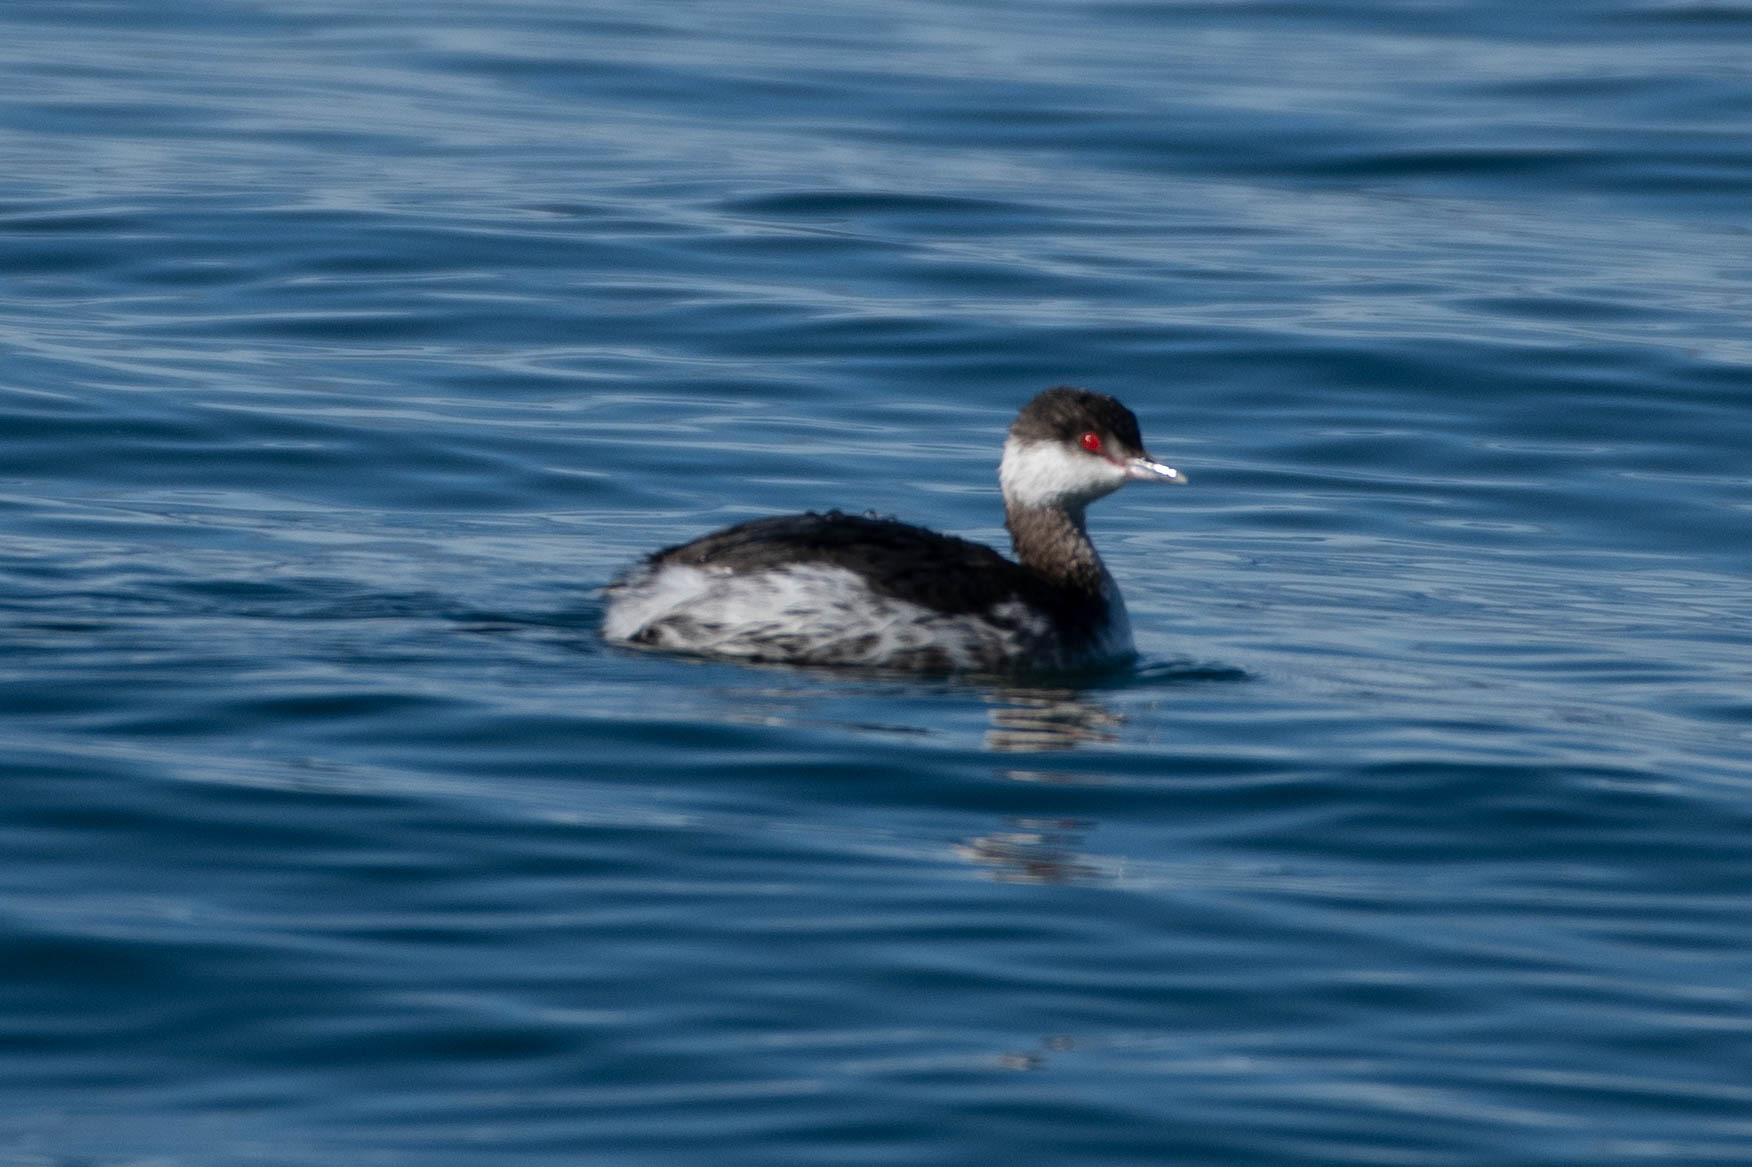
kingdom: Animalia
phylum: Chordata
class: Aves
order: Podicipediformes
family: Podicipedidae
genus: Podiceps
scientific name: Podiceps auritus
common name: Horned grebe
